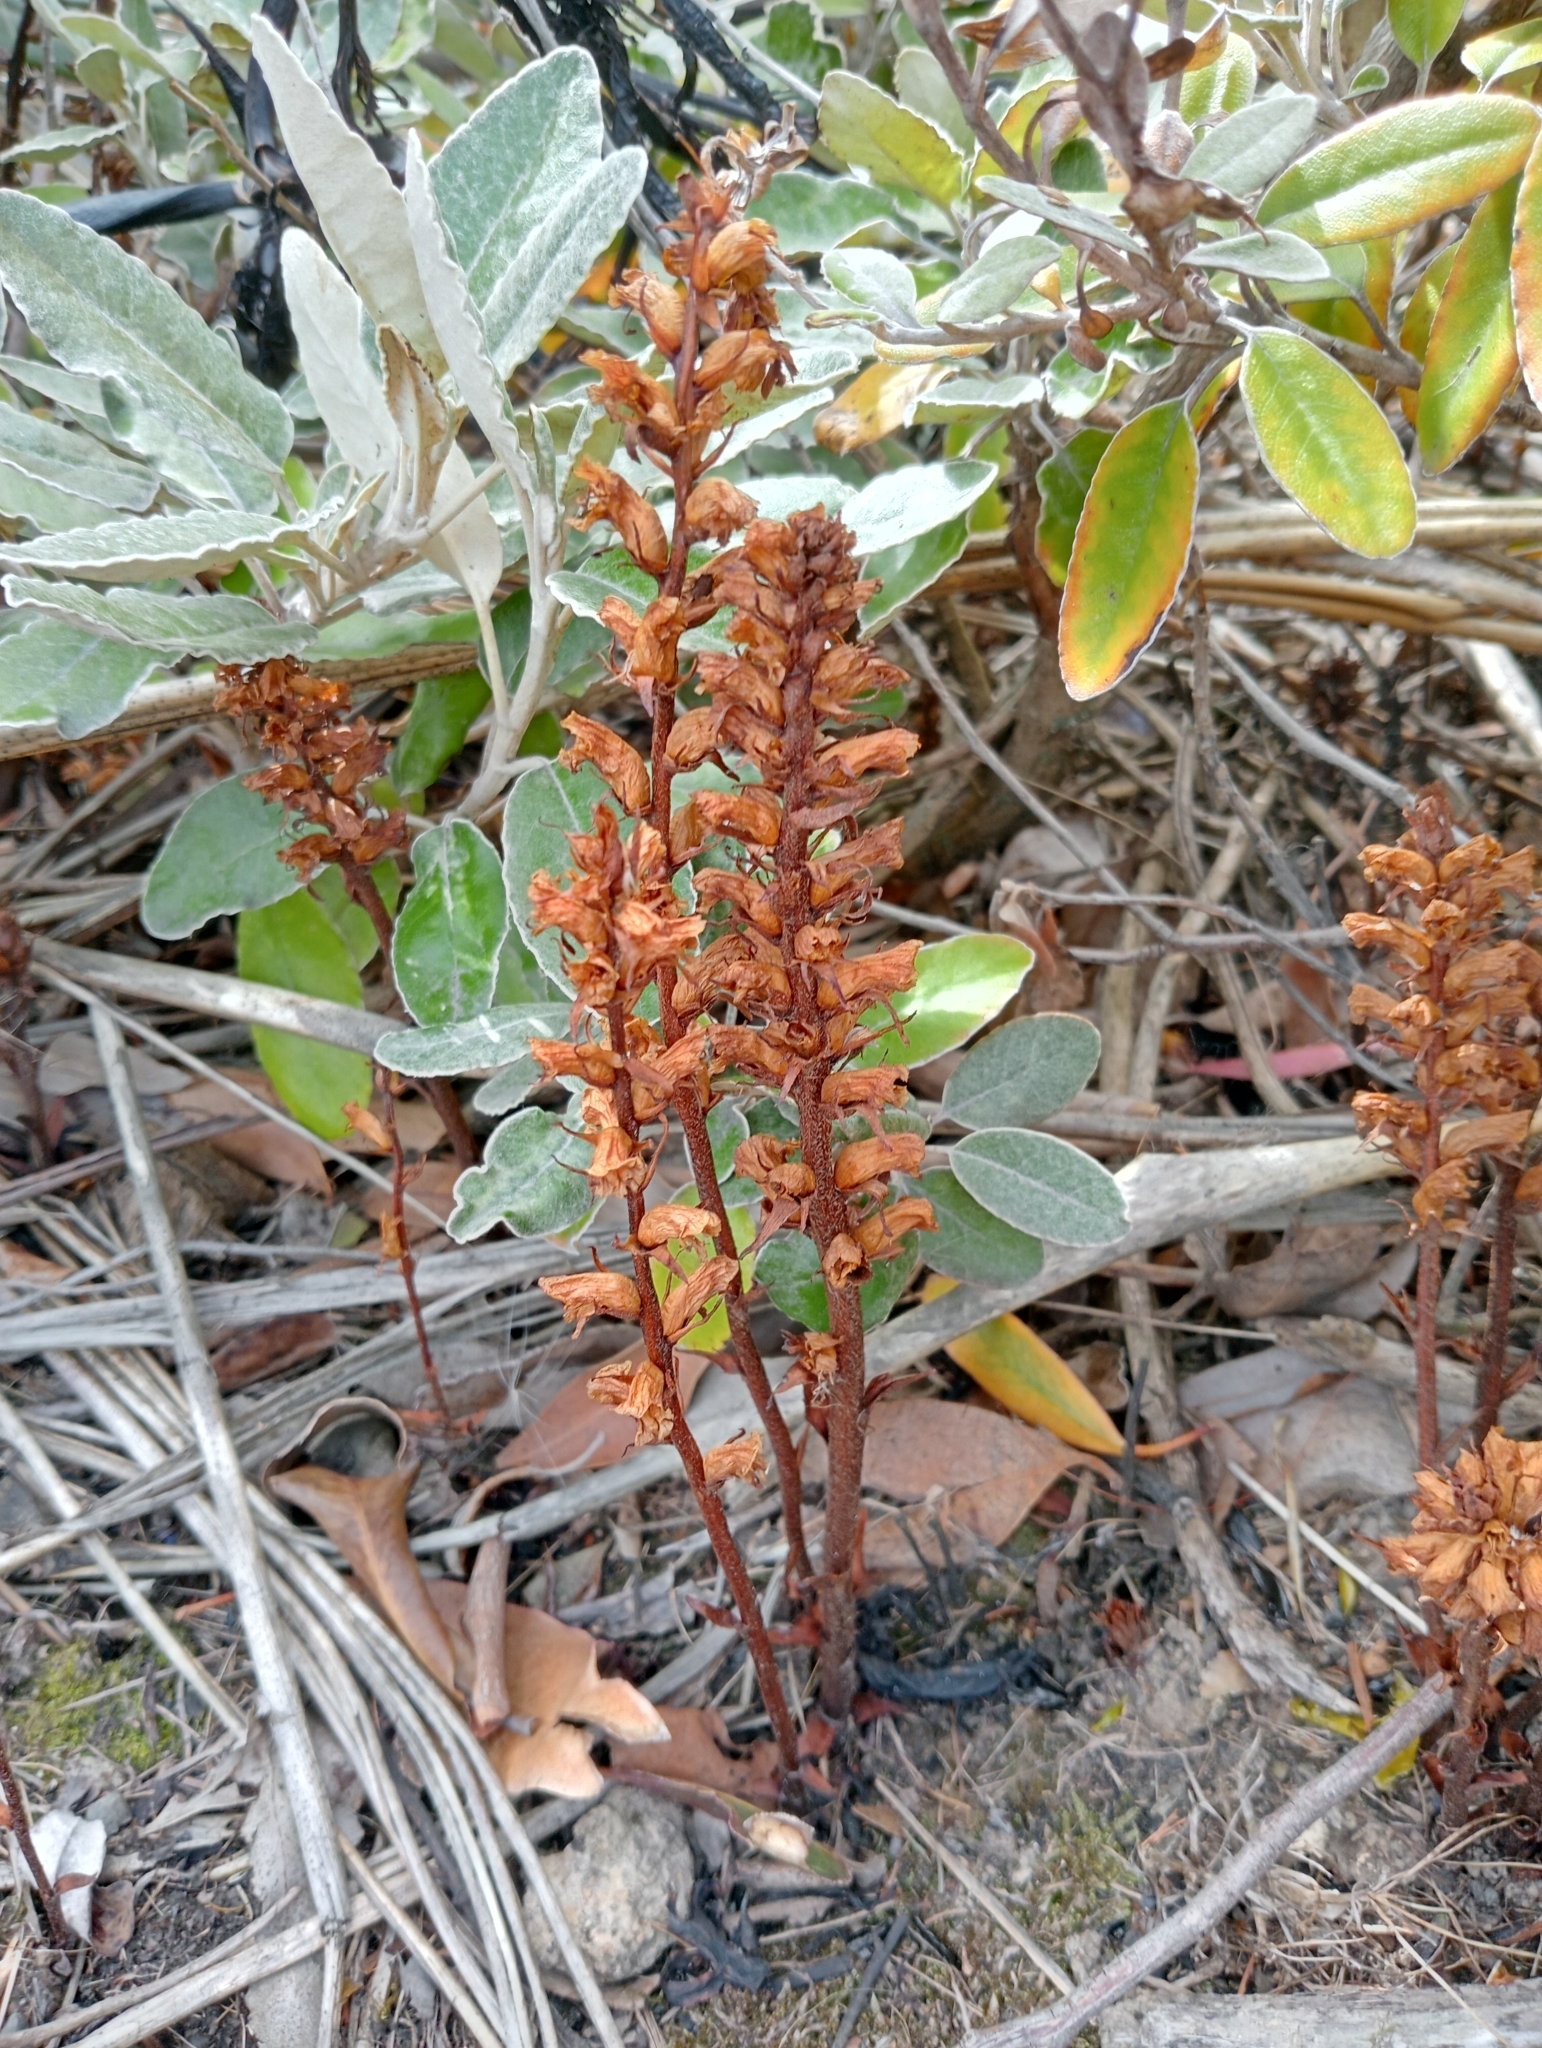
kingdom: Plantae
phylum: Tracheophyta
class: Magnoliopsida
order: Lamiales
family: Orobanchaceae
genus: Orobanche
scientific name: Orobanche minor
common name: Common broomrape
